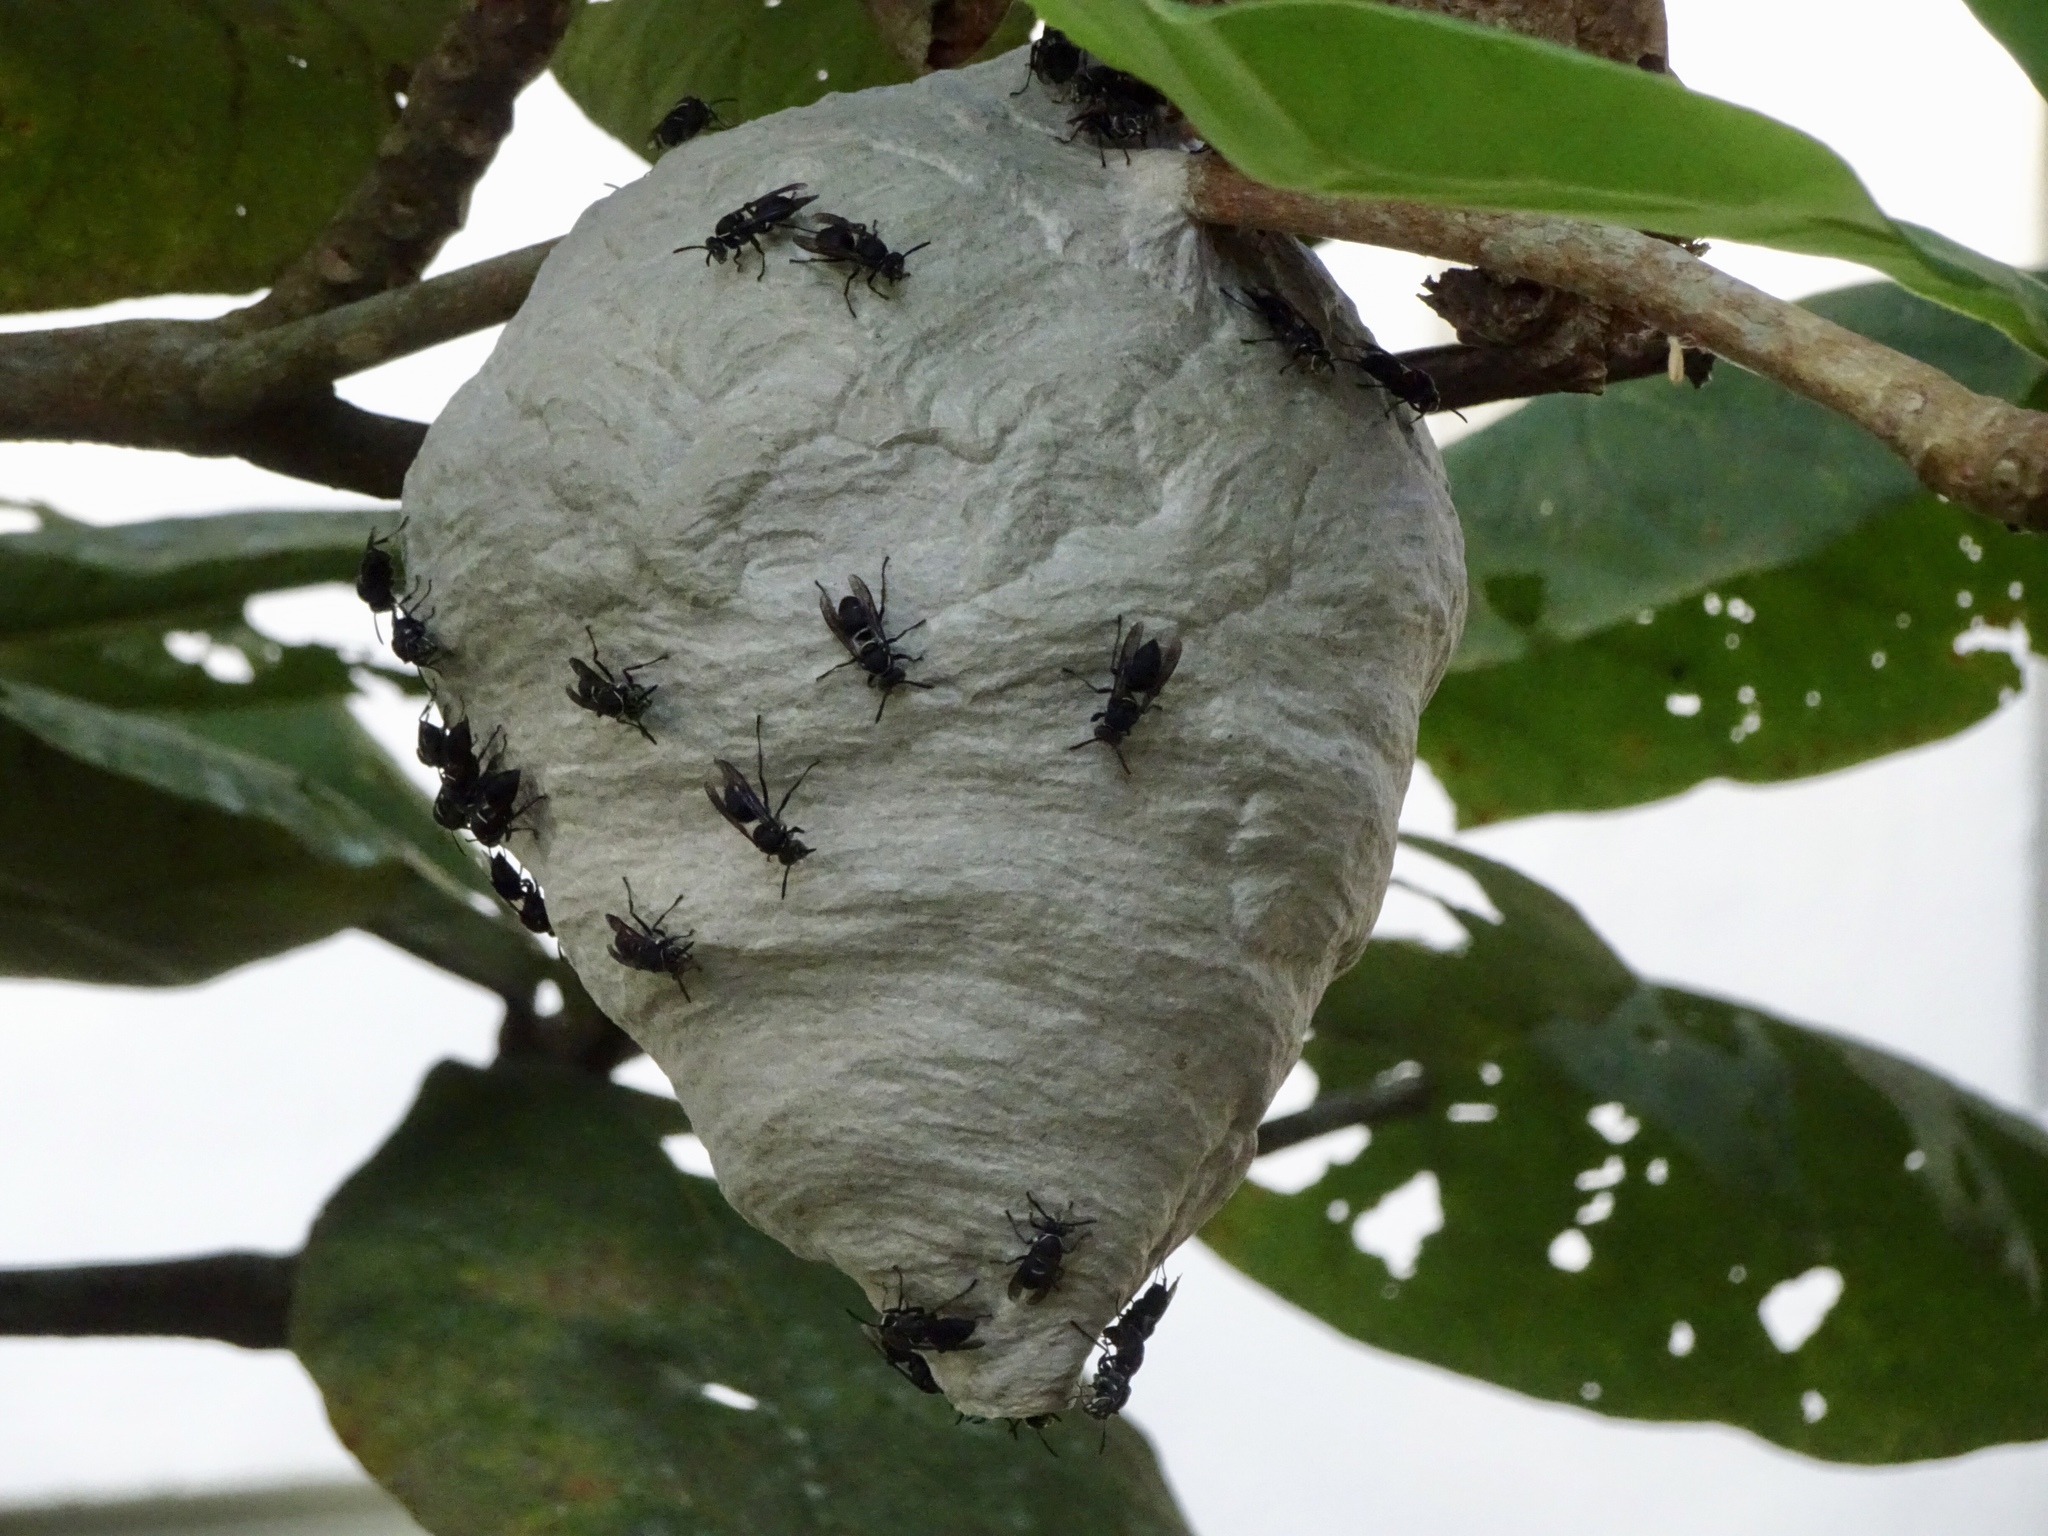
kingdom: Animalia
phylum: Arthropoda
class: Insecta
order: Hymenoptera
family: Vespidae
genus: Parachartergus
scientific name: Parachartergus compressus
